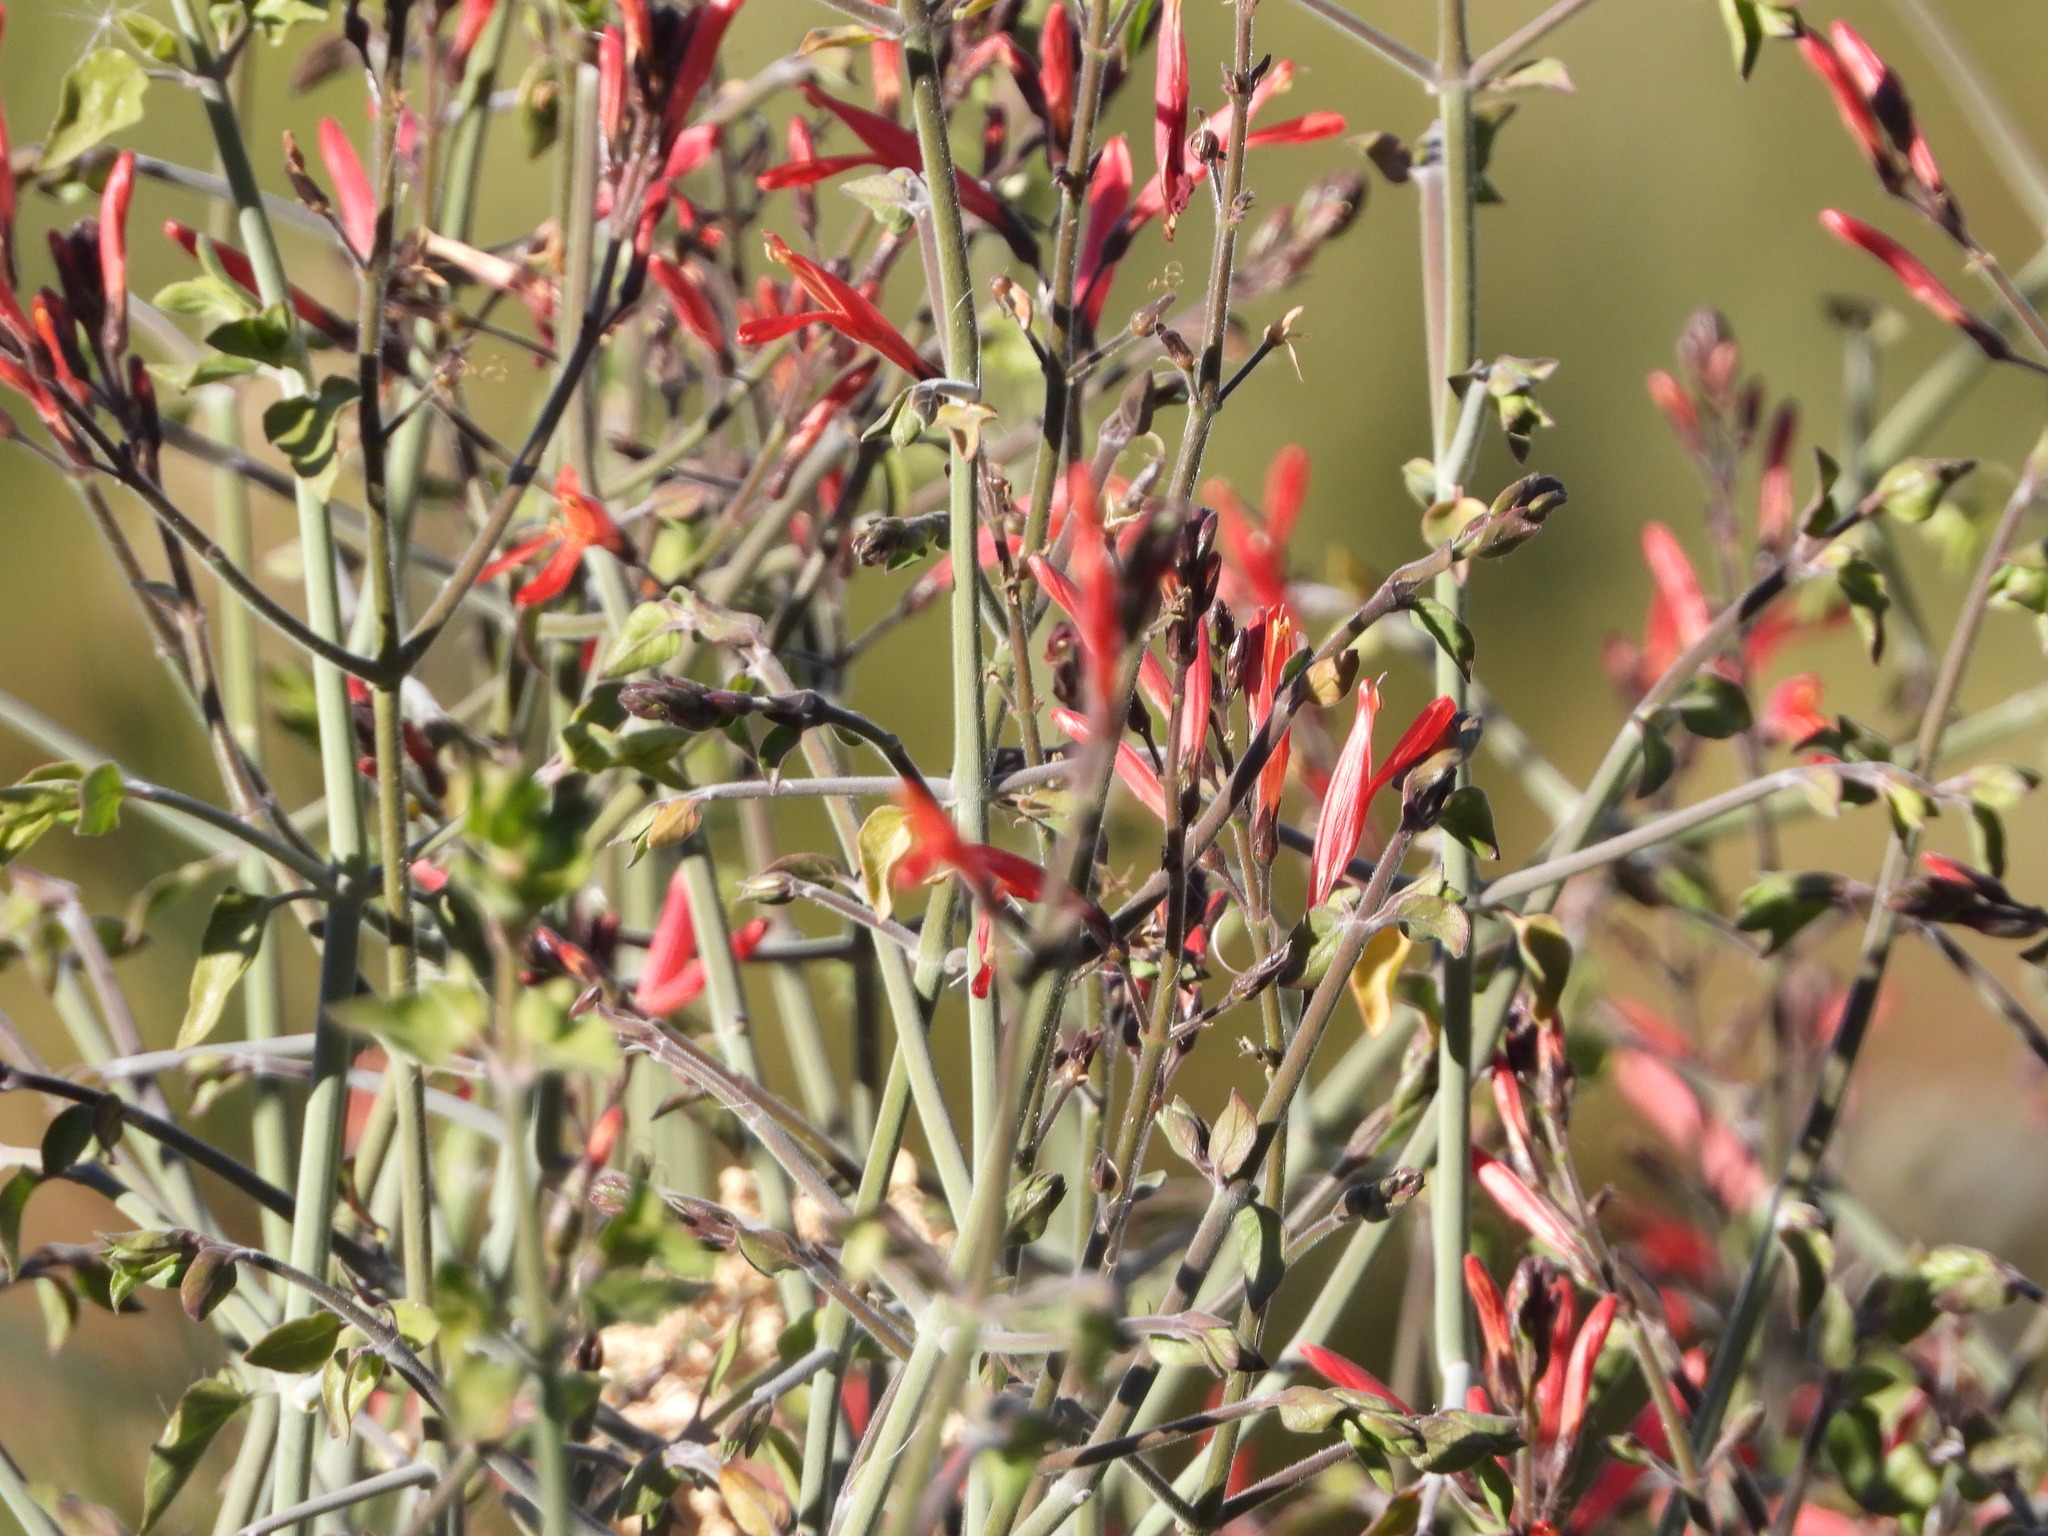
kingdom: Plantae
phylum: Tracheophyta
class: Magnoliopsida
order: Lamiales
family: Acanthaceae
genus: Justicia
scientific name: Justicia californica
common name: Chuparosa-honeysuckle
